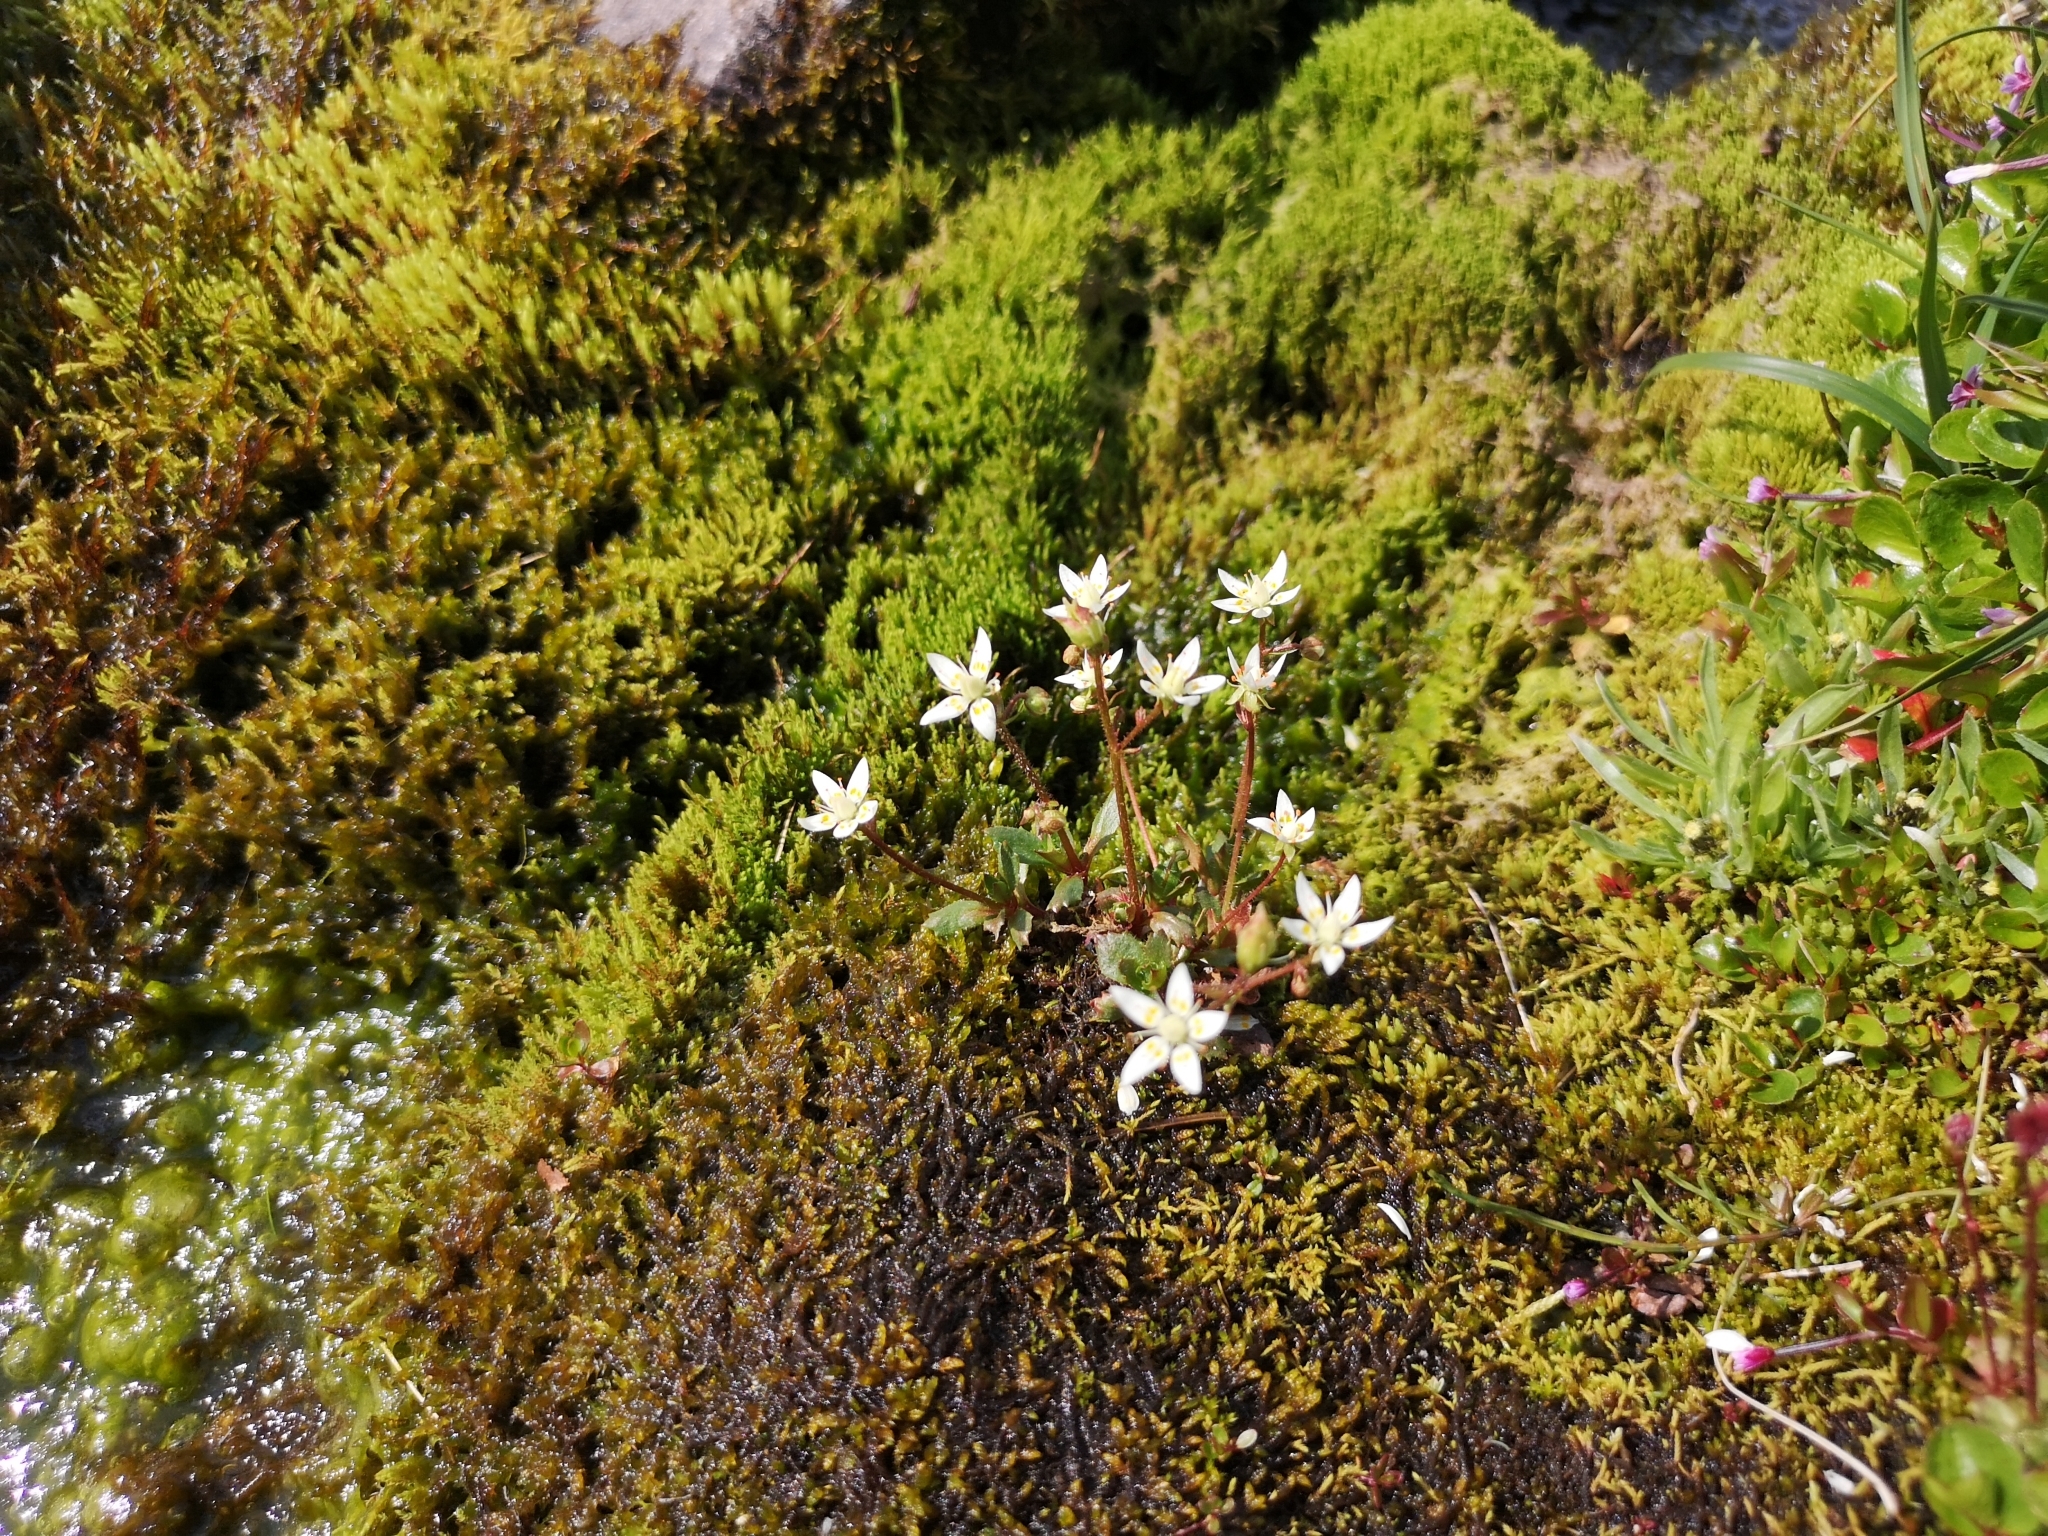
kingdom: Plantae
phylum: Tracheophyta
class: Magnoliopsida
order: Saxifragales
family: Saxifragaceae
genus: Micranthes
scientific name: Micranthes stellaris
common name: Starry saxifrage
